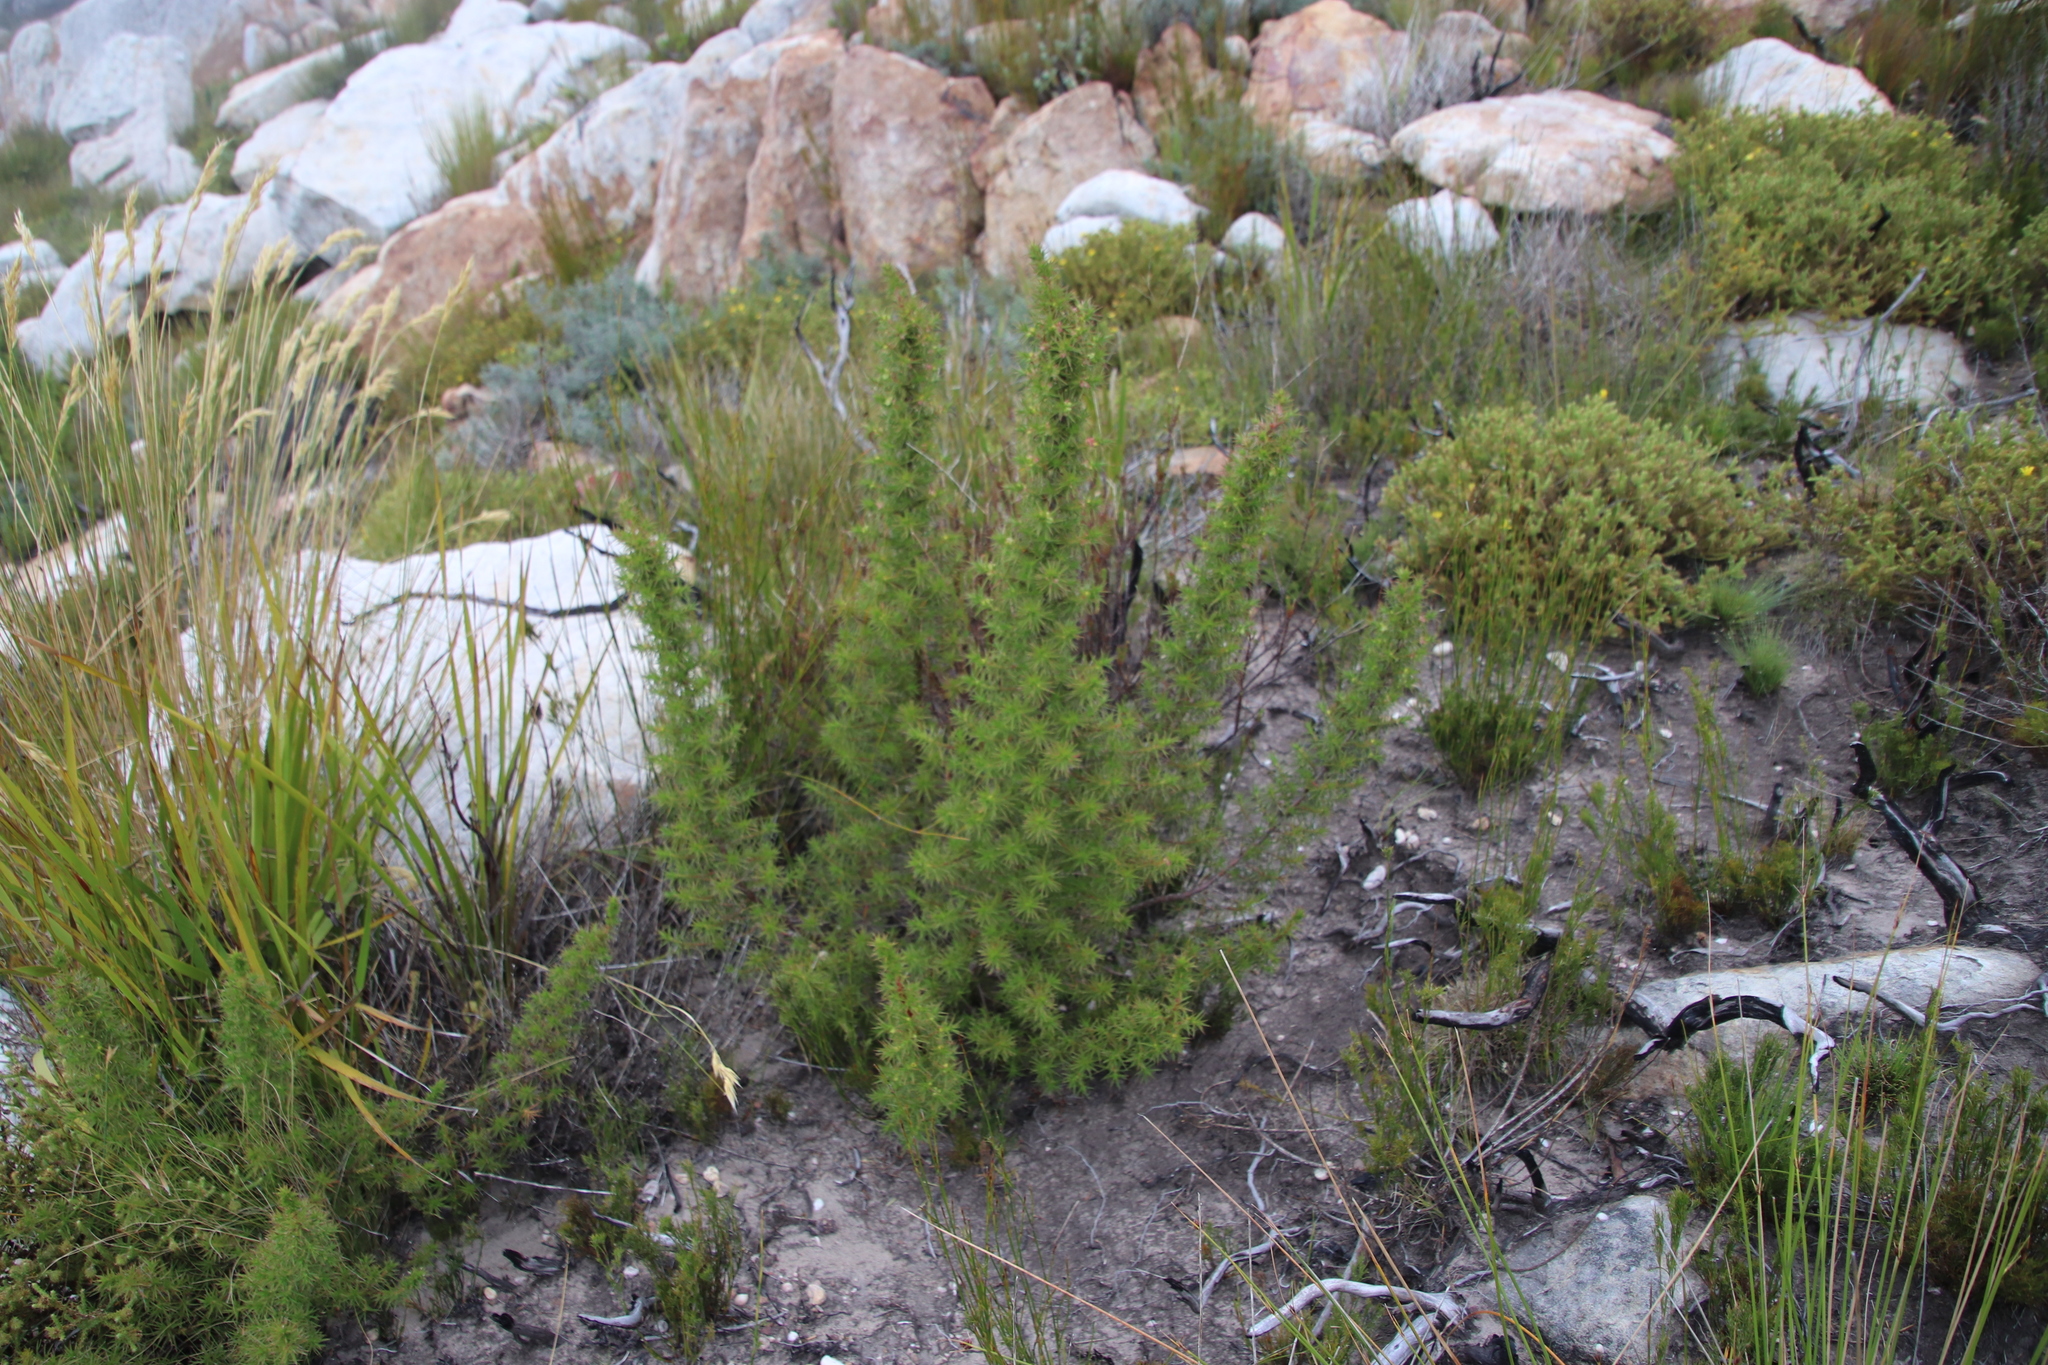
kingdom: Plantae
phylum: Tracheophyta
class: Magnoliopsida
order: Rosales
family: Rosaceae
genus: Cliffortia
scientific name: Cliffortia dregeana
